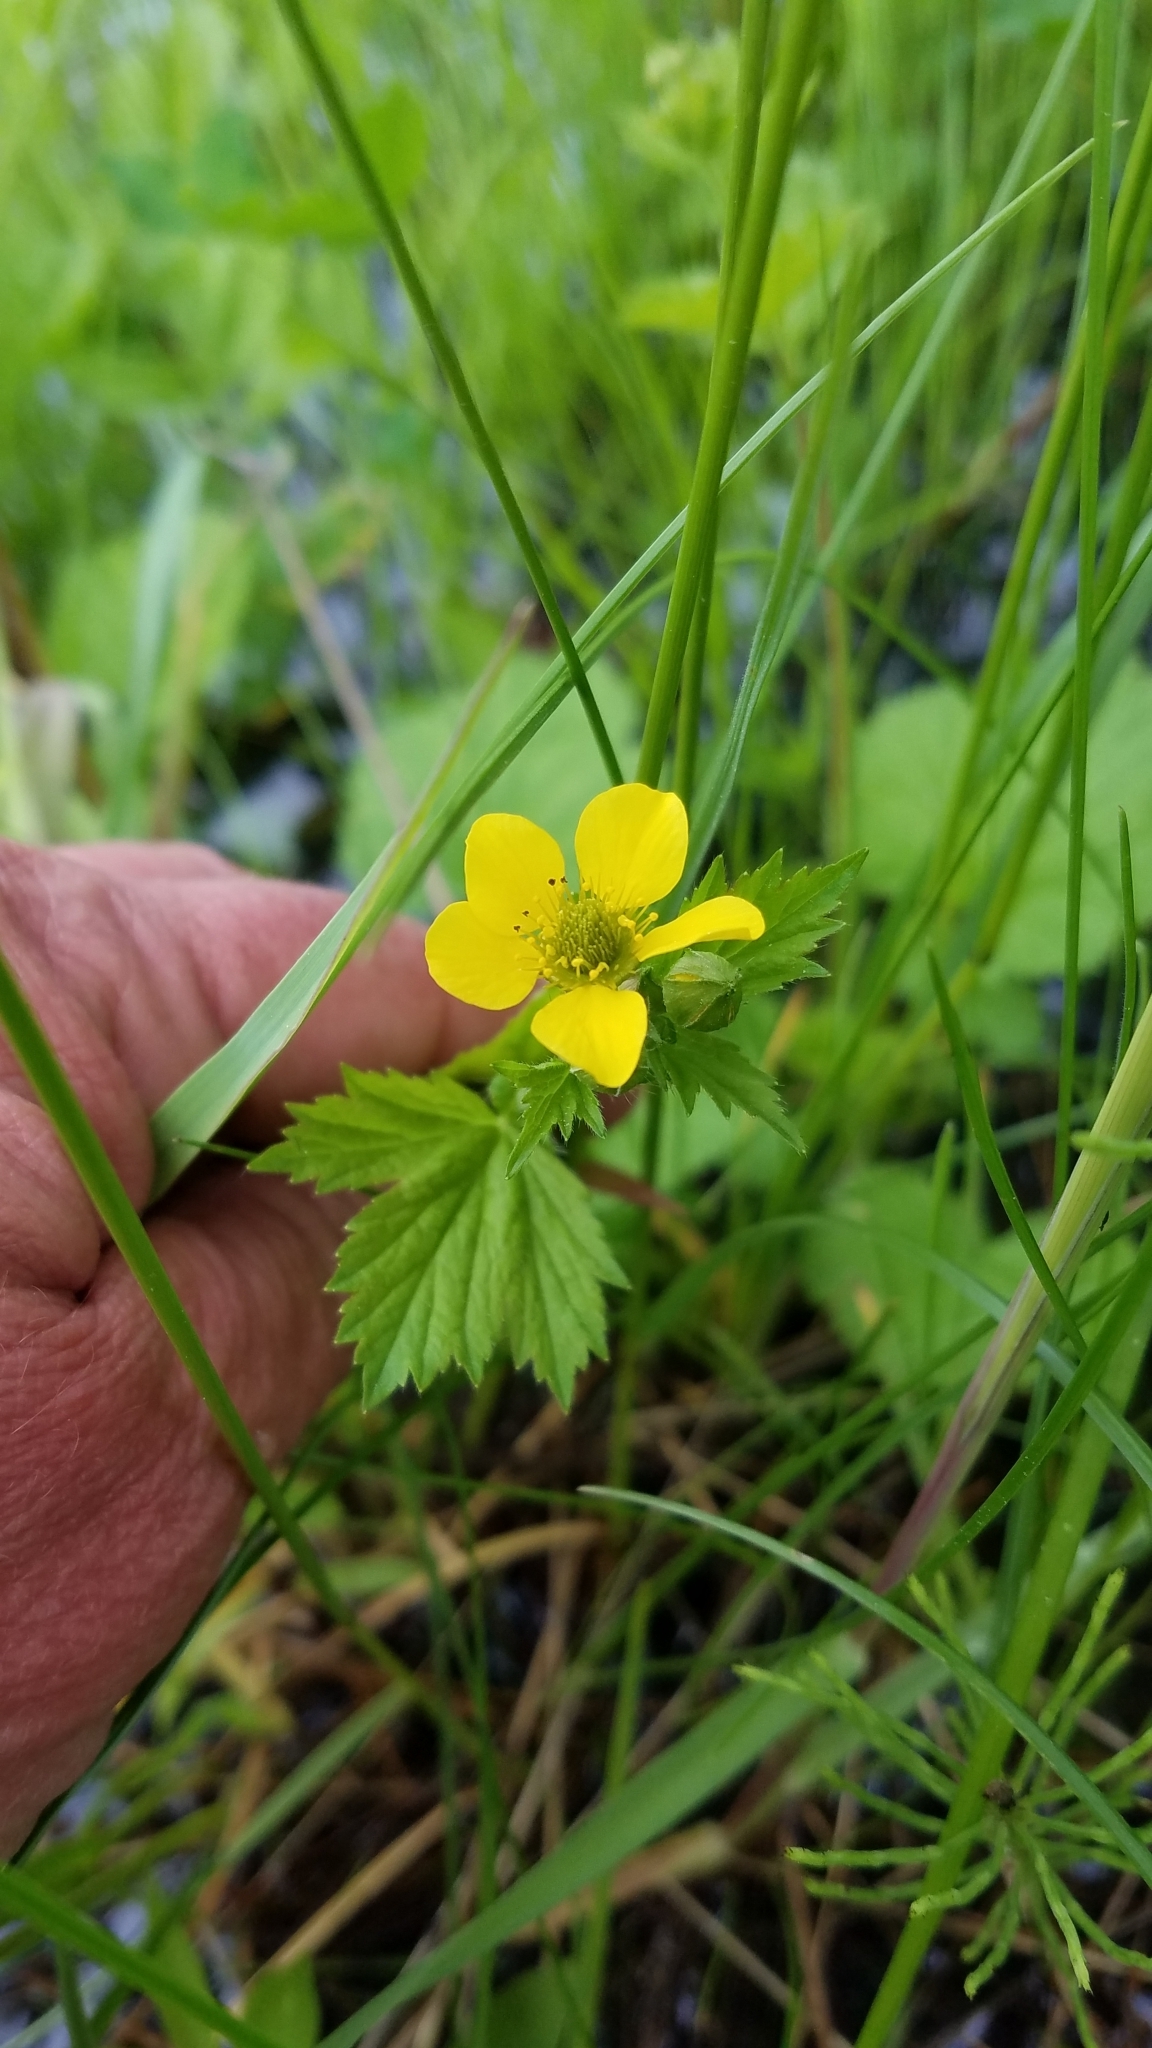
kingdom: Plantae
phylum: Tracheophyta
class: Magnoliopsida
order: Rosales
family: Rosaceae
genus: Geum
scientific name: Geum macrophyllum
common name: Large-leaved avens
